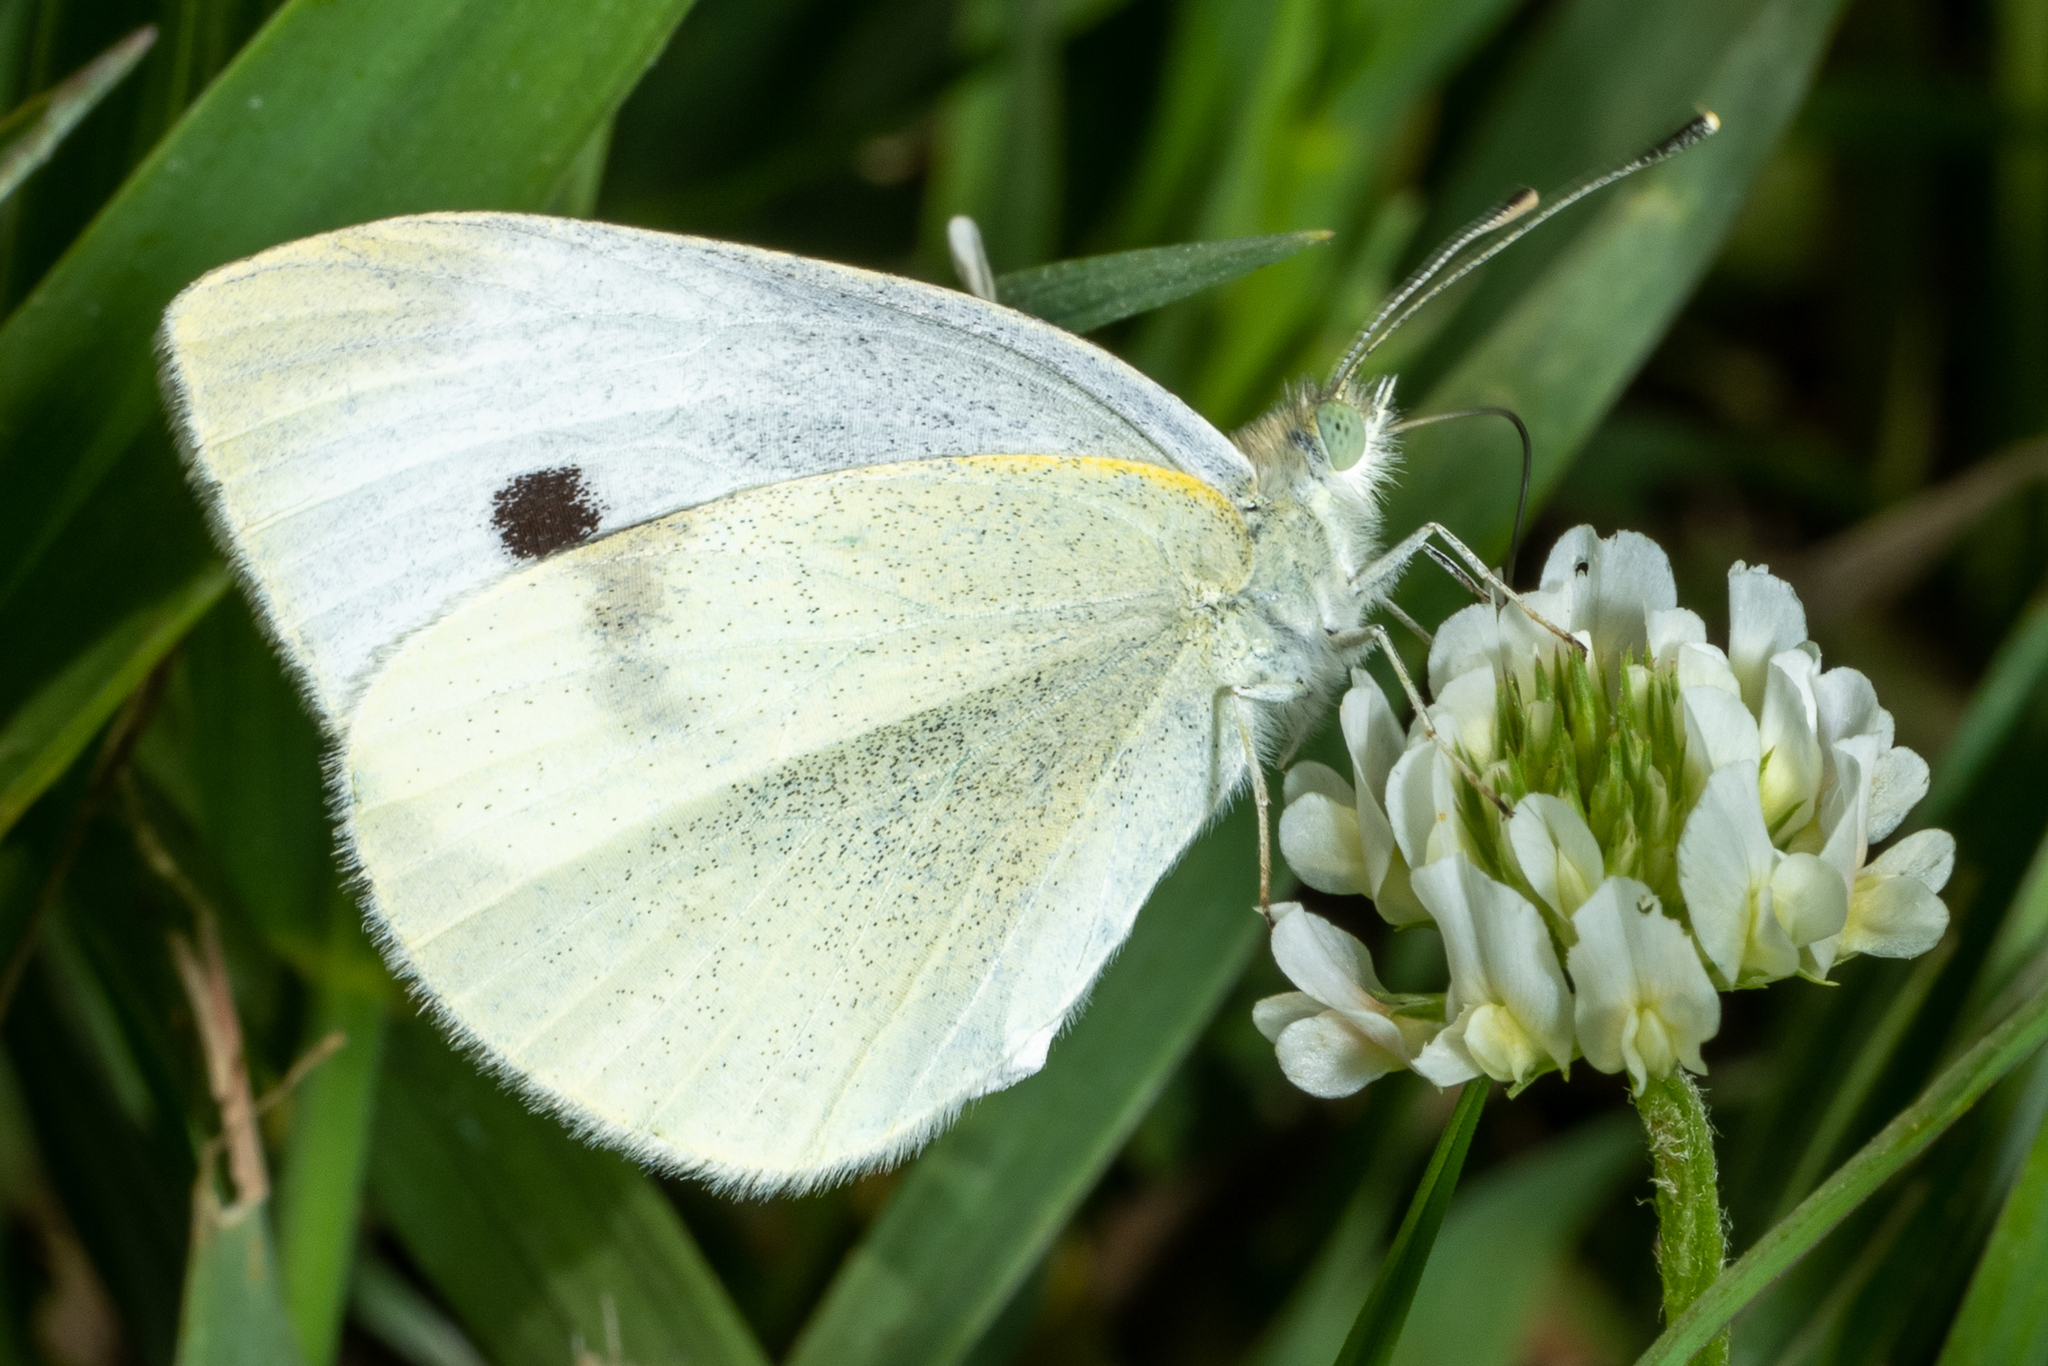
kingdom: Animalia
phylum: Arthropoda
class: Insecta
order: Lepidoptera
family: Pieridae
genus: Pieris
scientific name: Pieris rapae
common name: Small white
